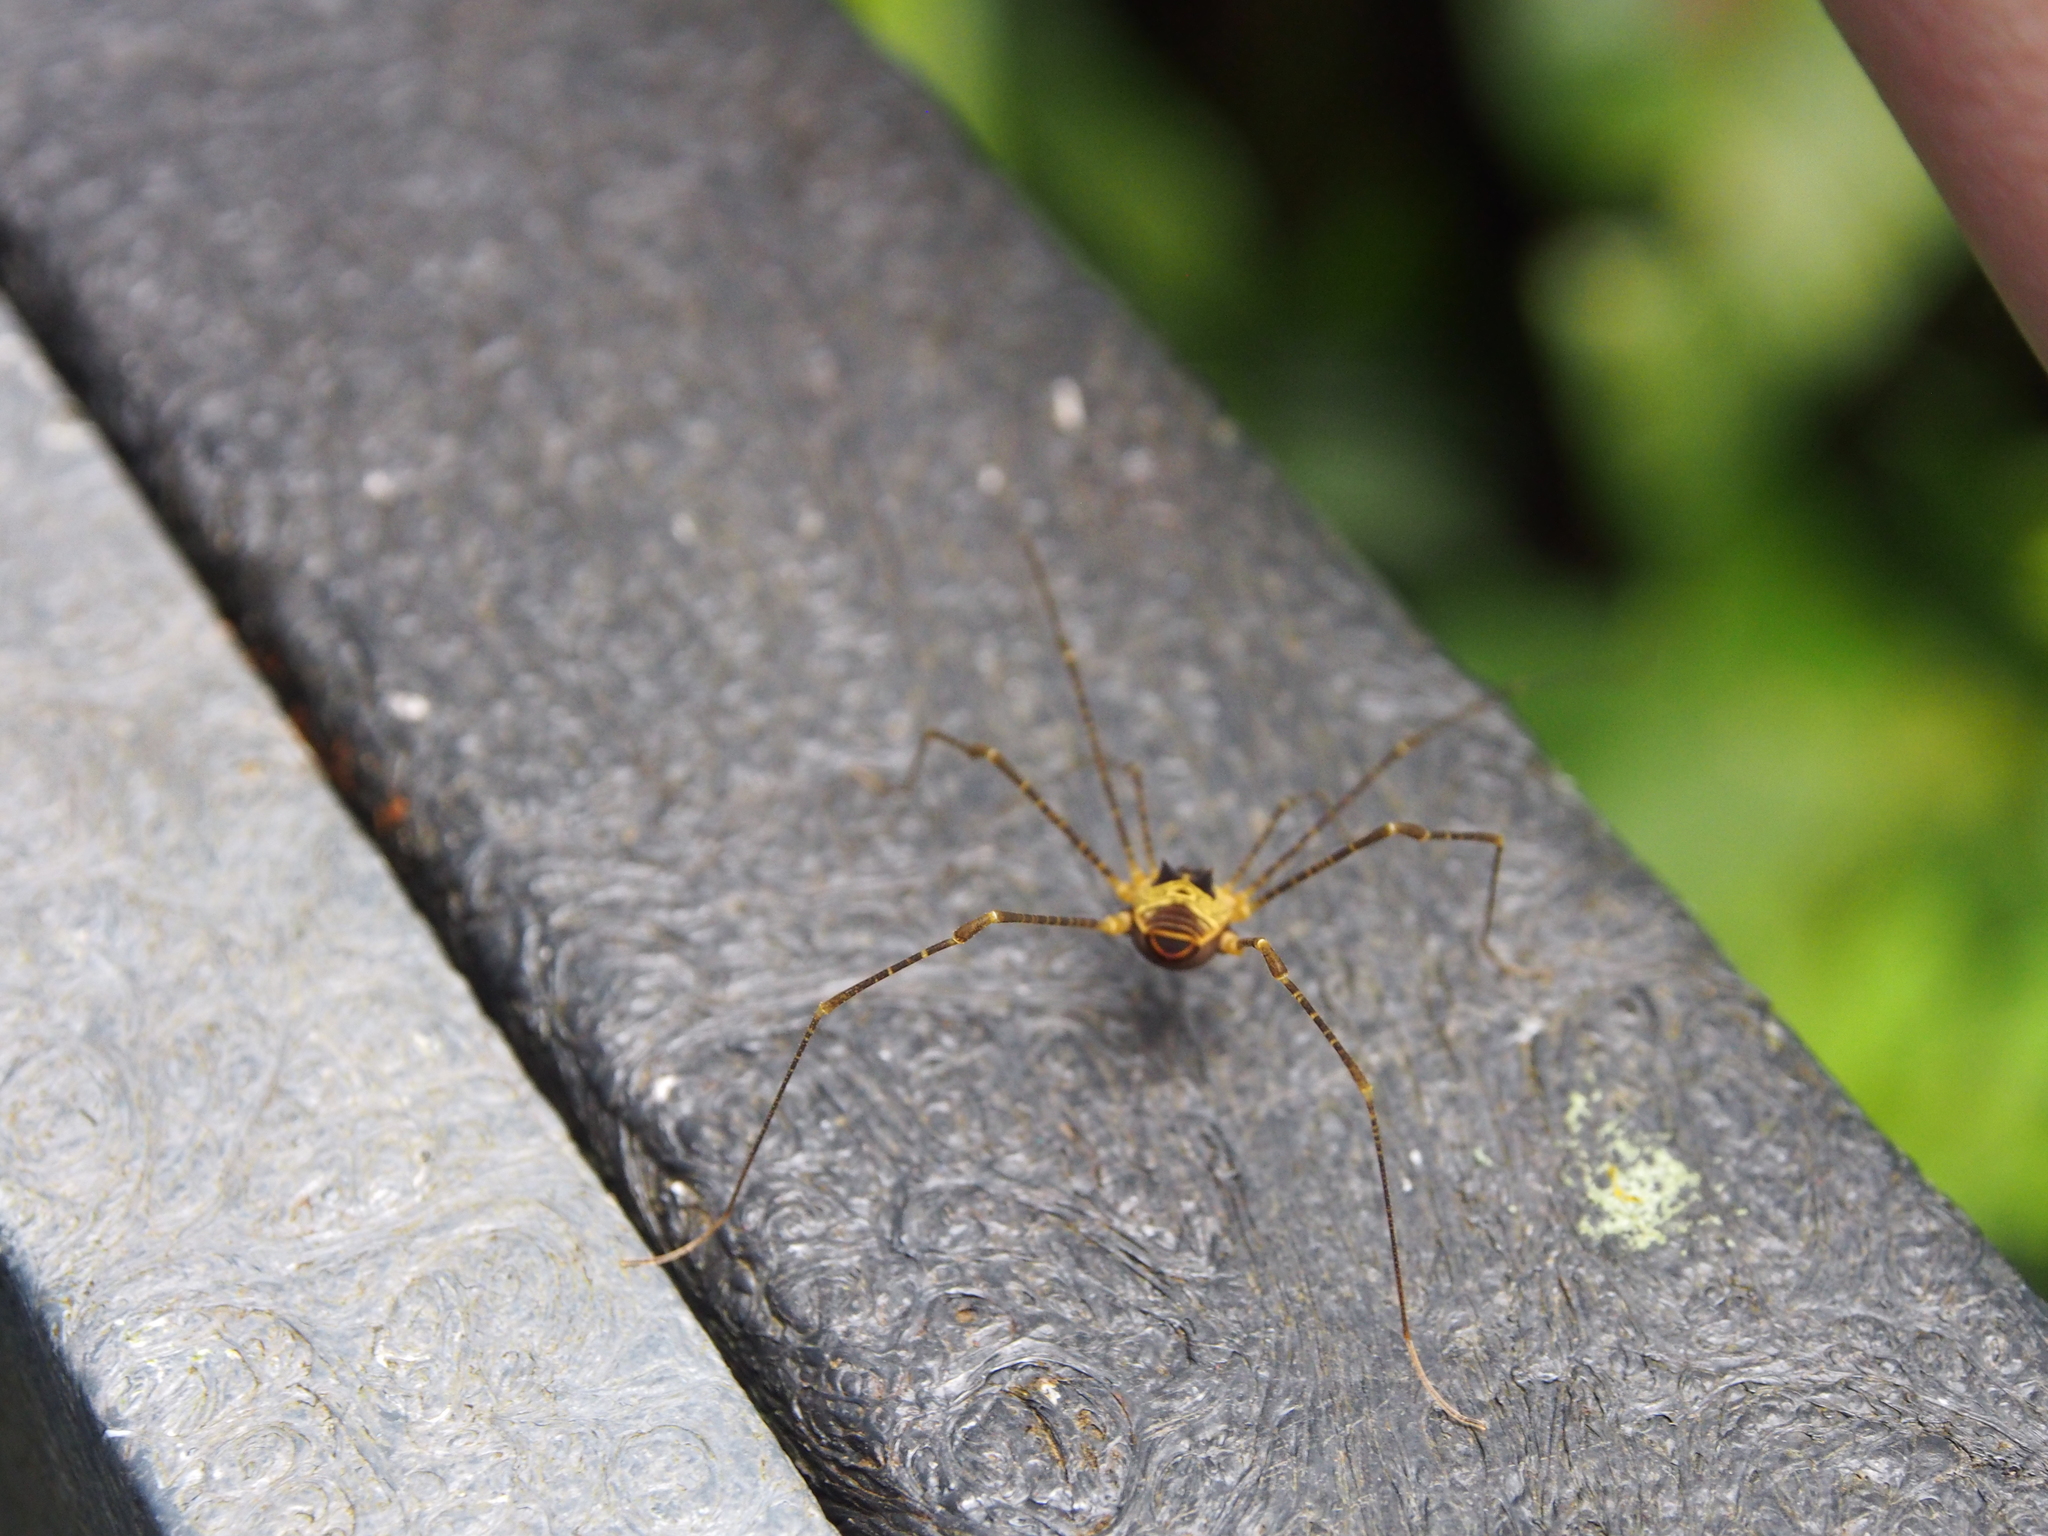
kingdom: Animalia
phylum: Arthropoda
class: Arachnida
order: Opiliones
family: Cosmetidae
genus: Eucynorta
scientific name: Eucynorta conigera
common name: Harvestmen
